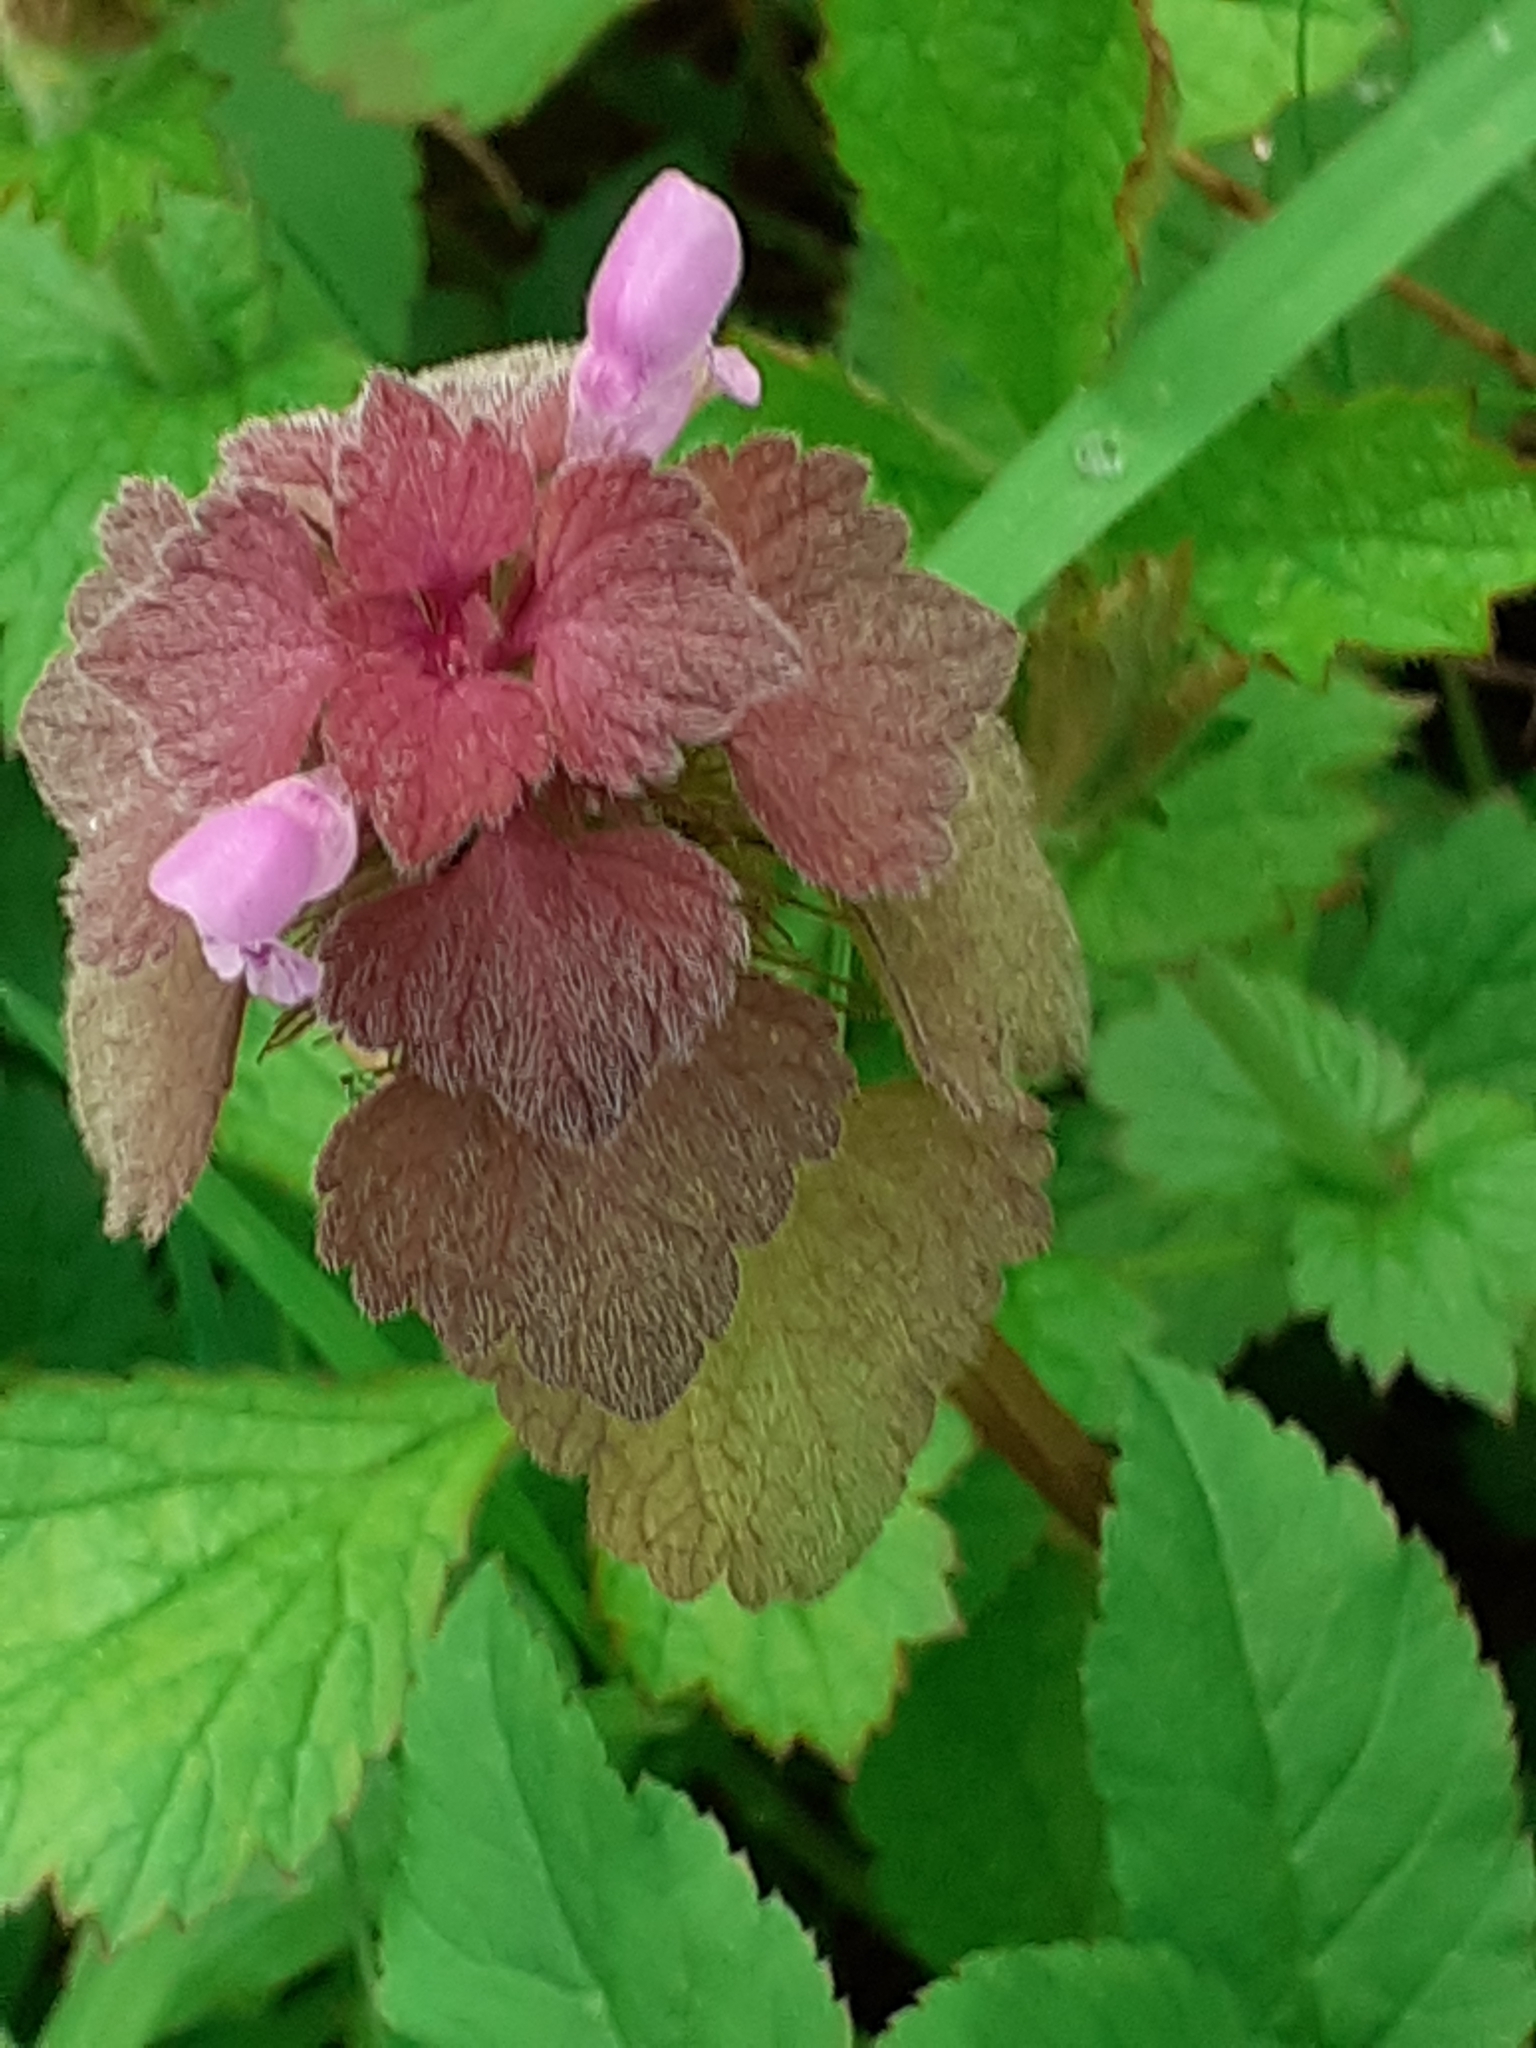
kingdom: Plantae
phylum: Tracheophyta
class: Magnoliopsida
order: Lamiales
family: Lamiaceae
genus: Lamium
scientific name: Lamium purpureum
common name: Red dead-nettle
